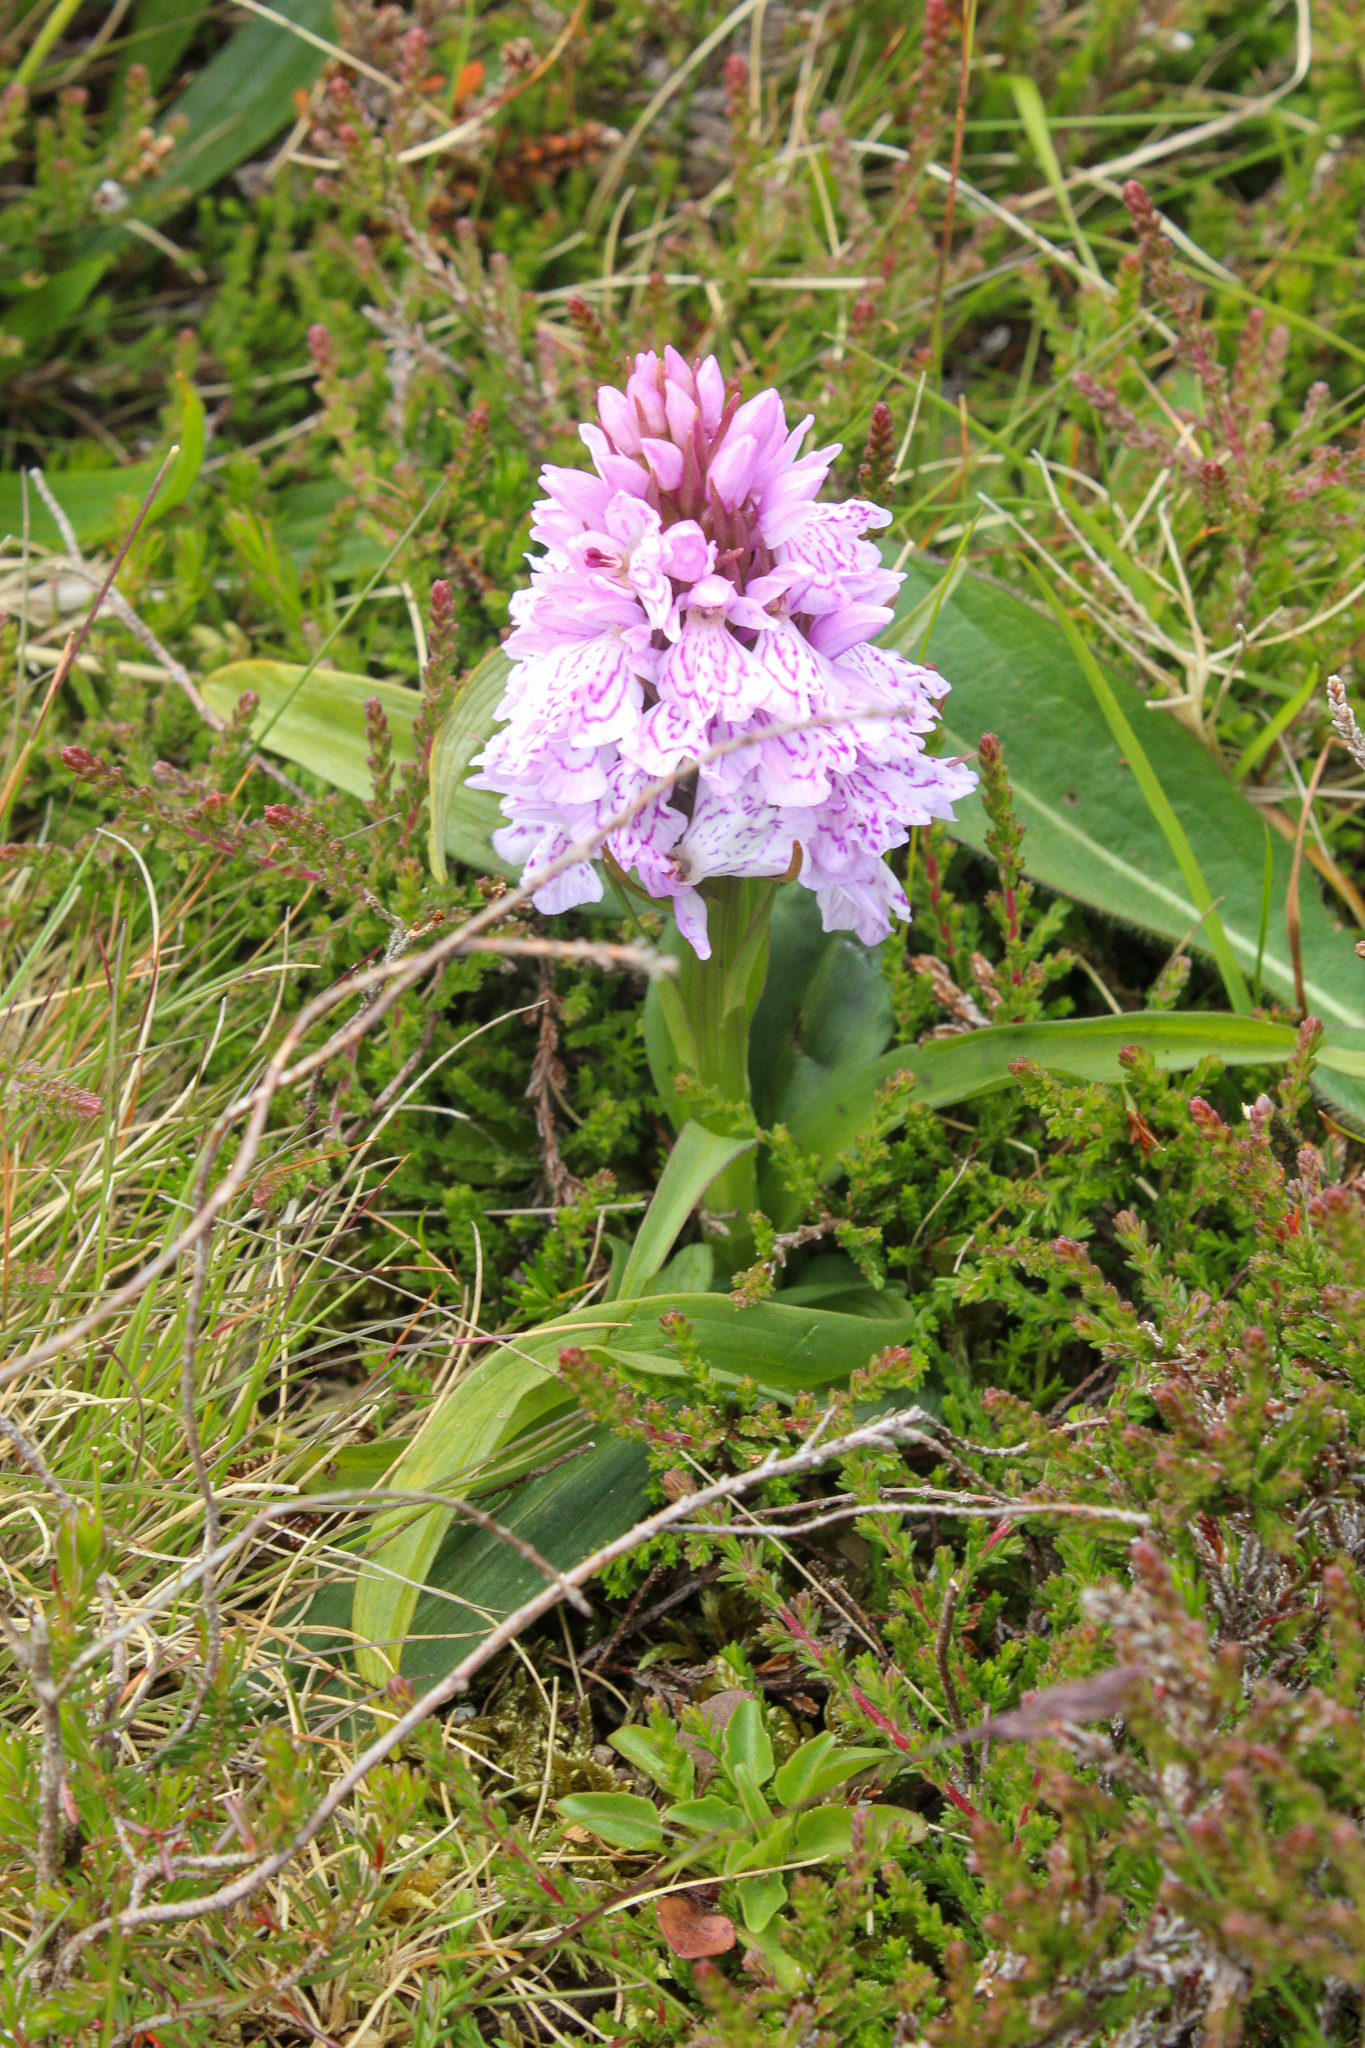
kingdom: Plantae
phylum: Tracheophyta
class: Liliopsida
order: Asparagales
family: Orchidaceae
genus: Dactylorhiza
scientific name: Dactylorhiza maculata
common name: Heath spotted-orchid
